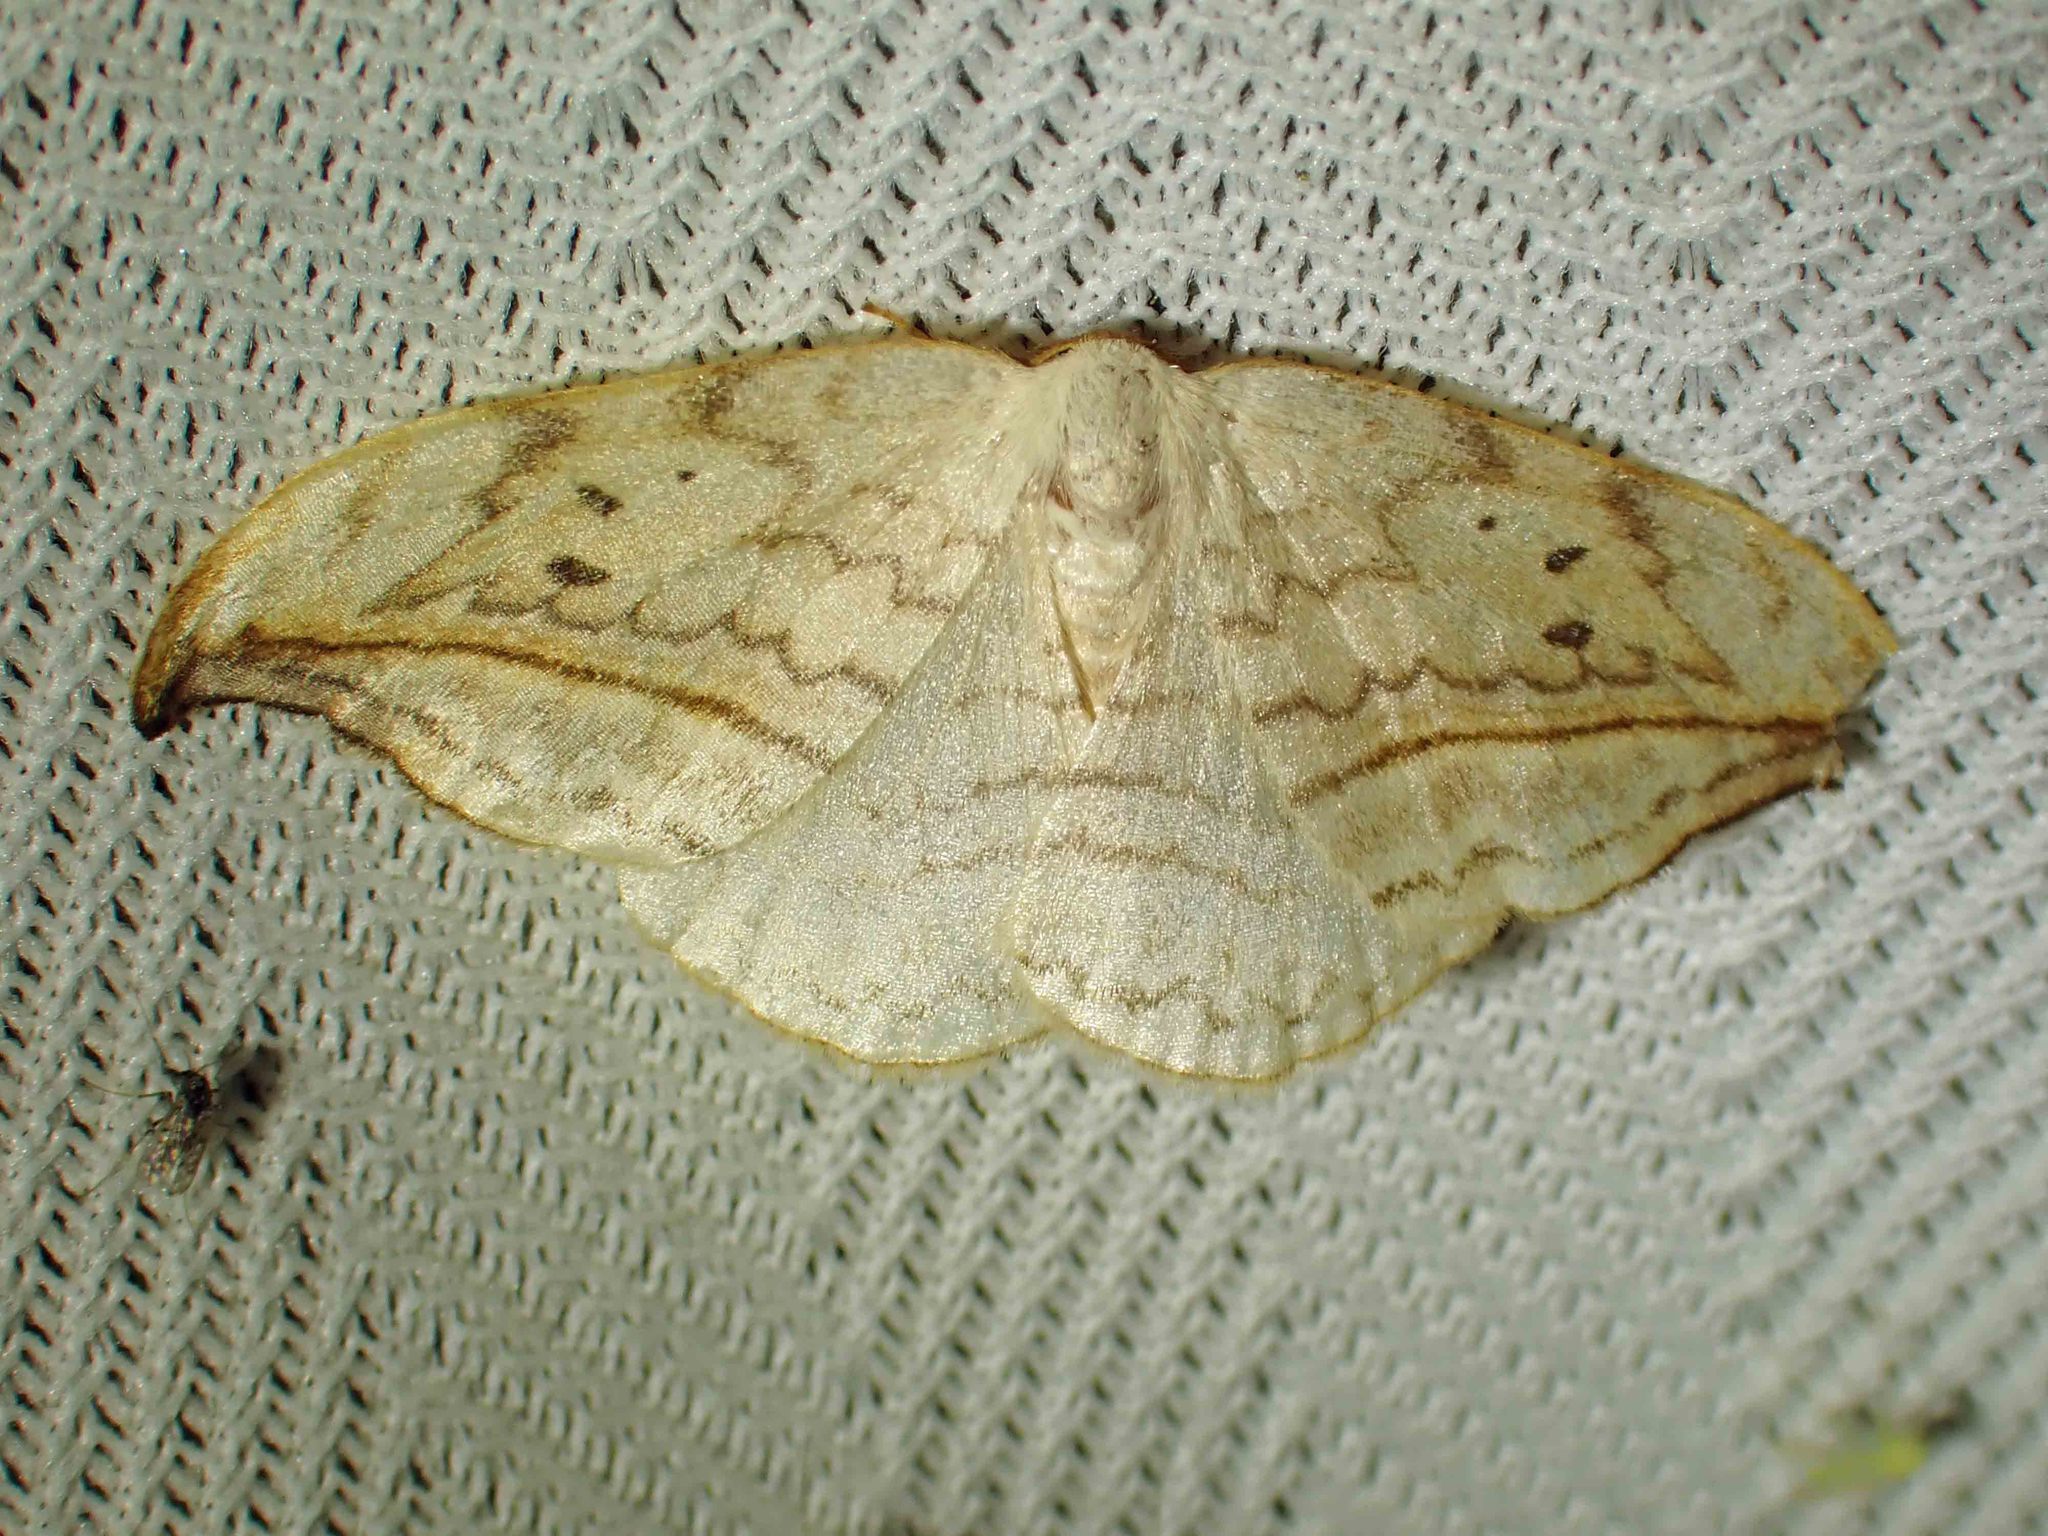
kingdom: Animalia
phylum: Arthropoda
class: Insecta
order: Lepidoptera
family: Drepanidae
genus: Drepana
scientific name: Drepana arcuata
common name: Arched hooktip moth
